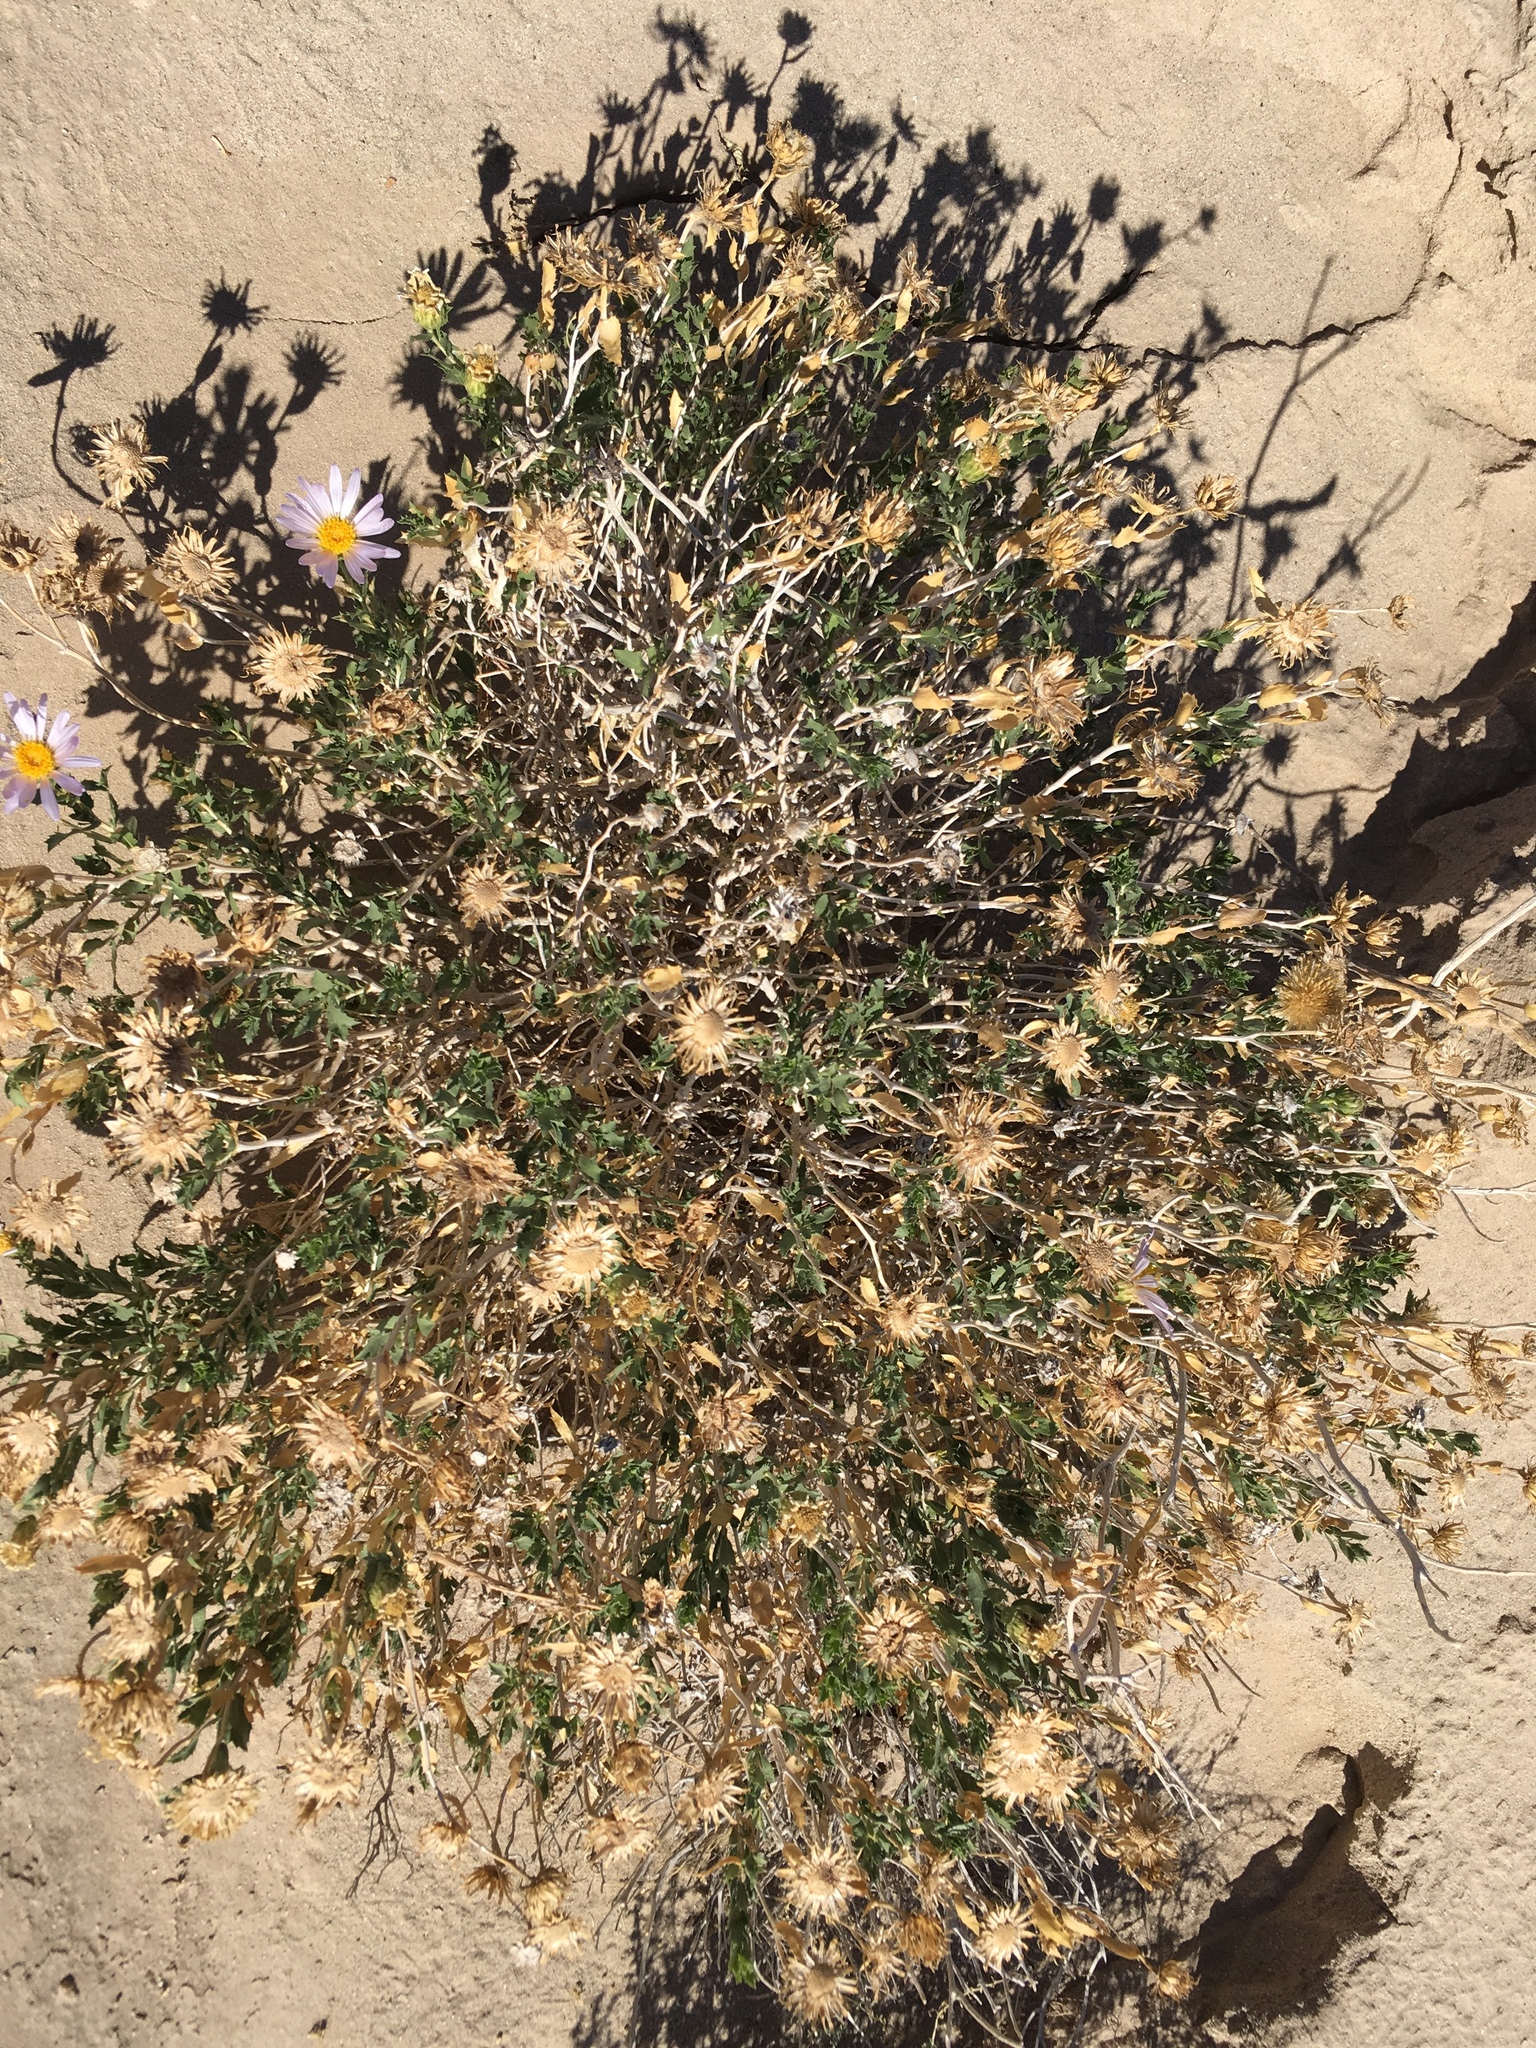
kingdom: Plantae
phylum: Tracheophyta
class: Magnoliopsida
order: Asterales
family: Asteraceae
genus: Xylorhiza
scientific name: Xylorhiza orcuttii
